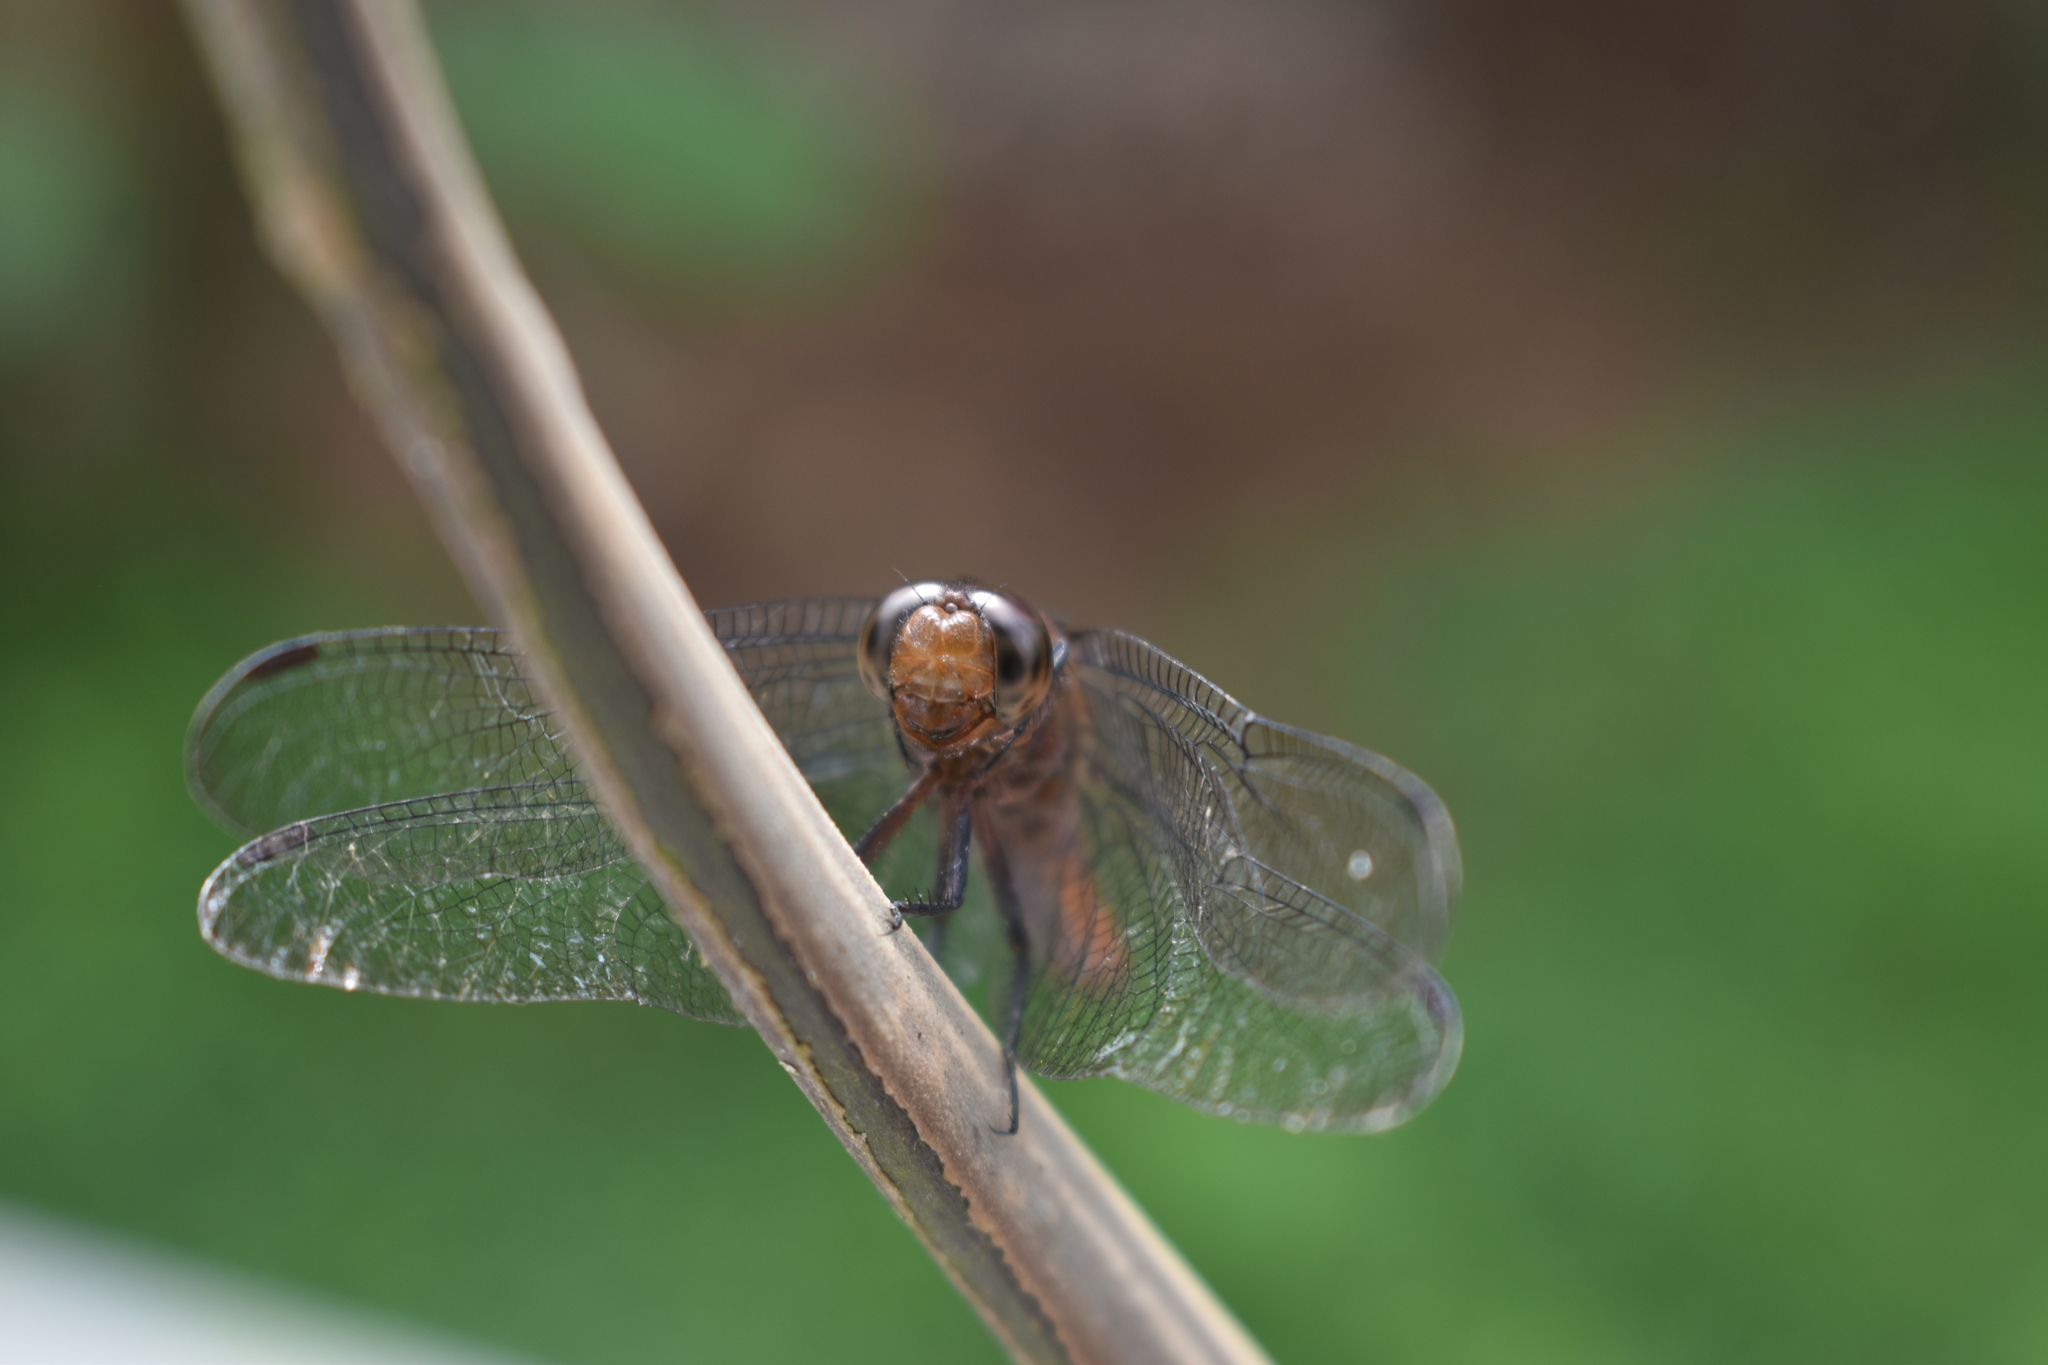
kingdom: Animalia
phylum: Arthropoda
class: Insecta
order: Odonata
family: Libellulidae
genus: Orthetrum
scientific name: Orthetrum chrysis
